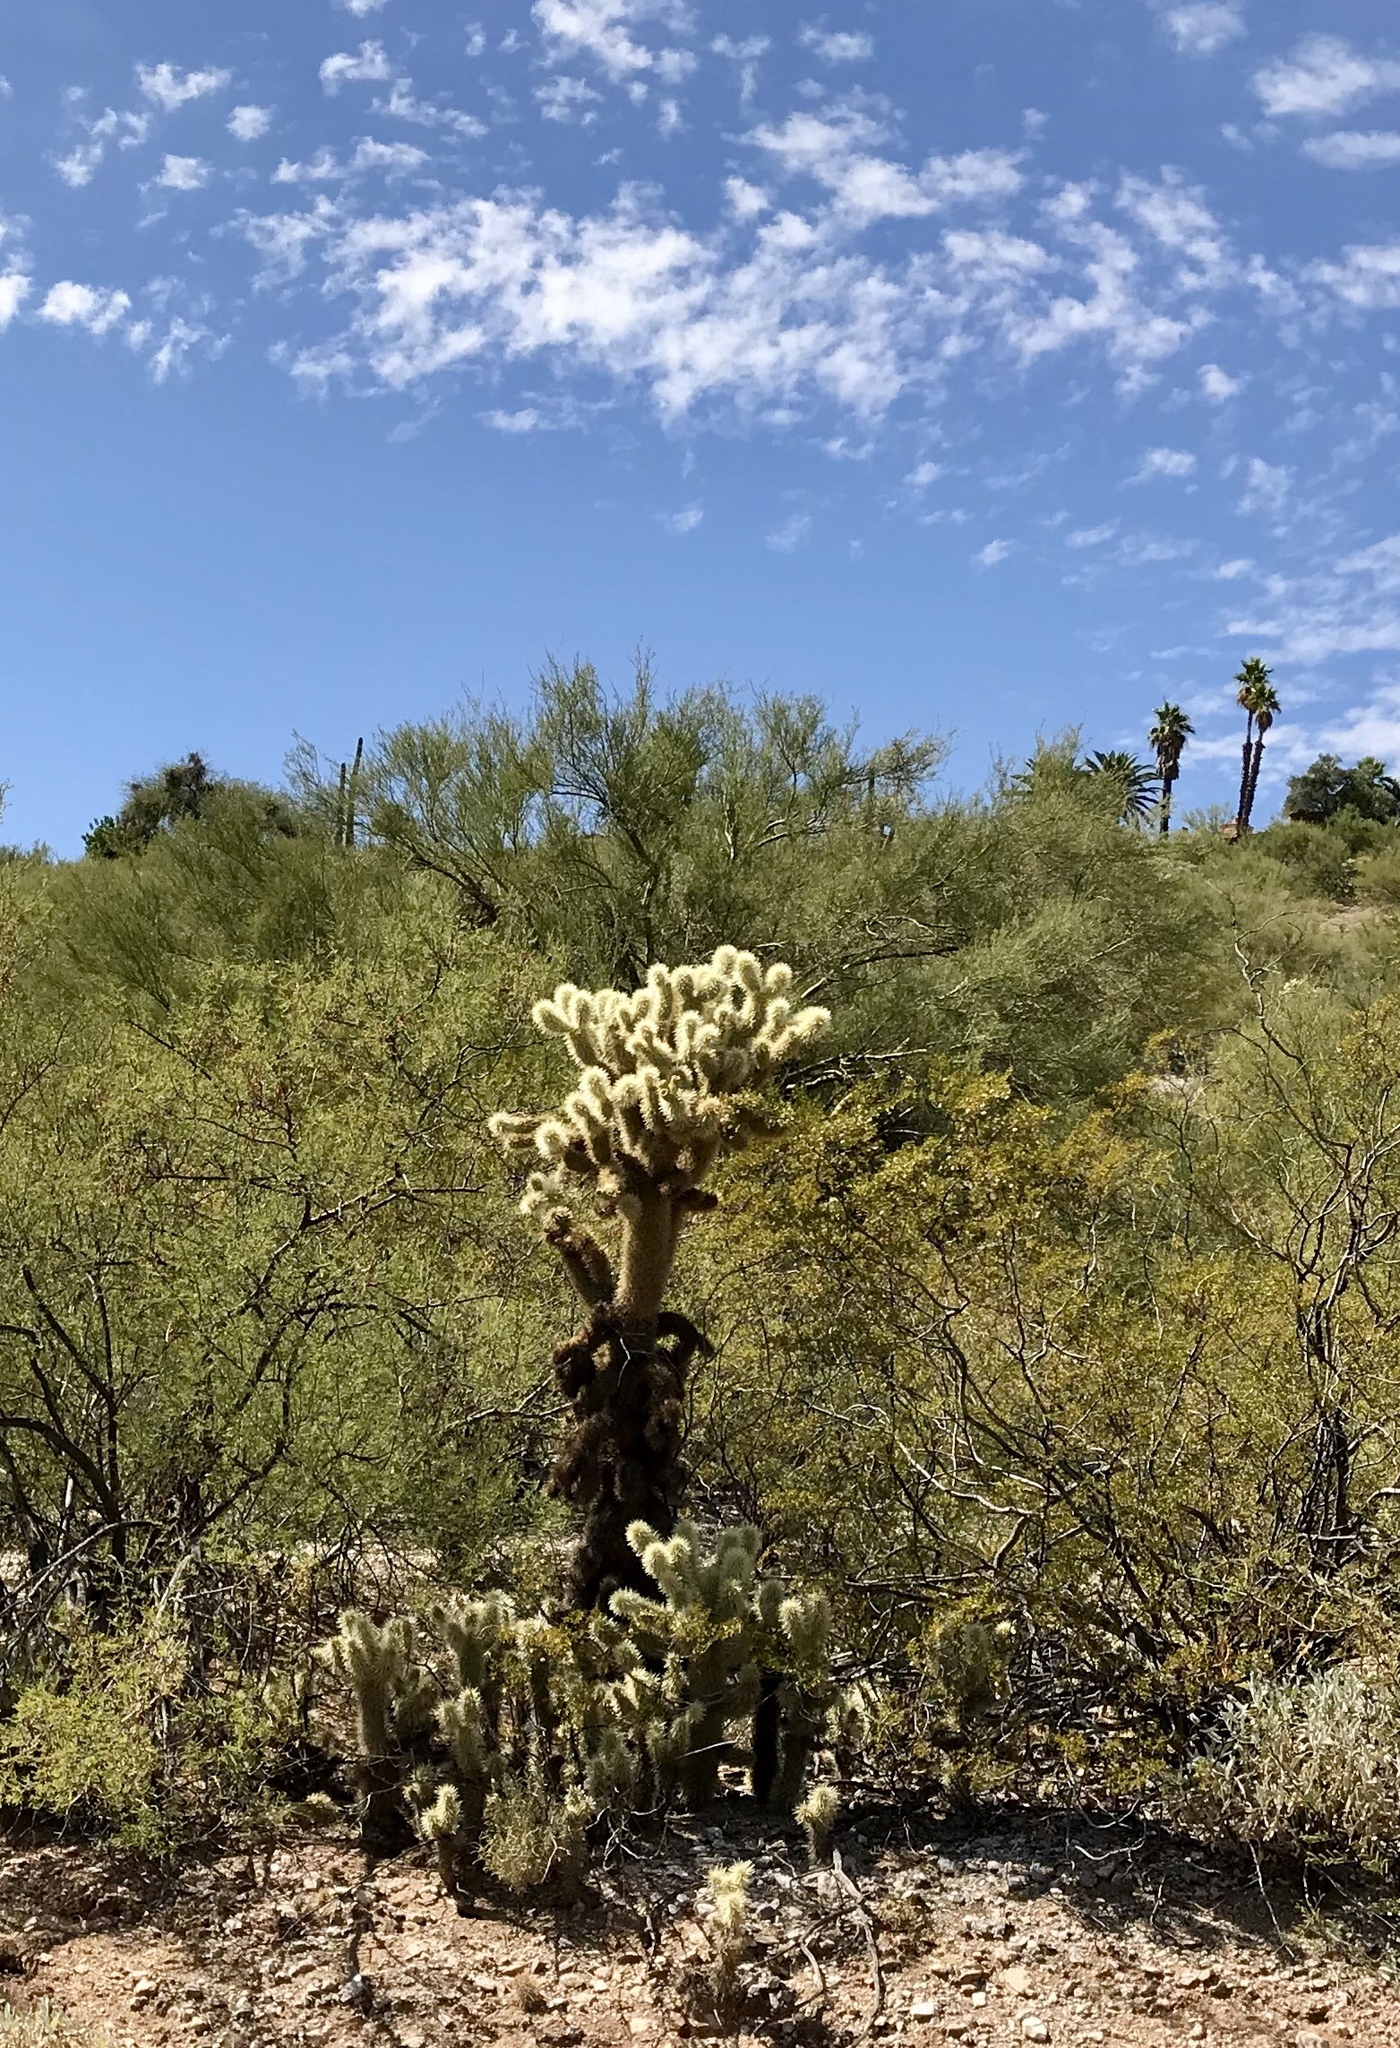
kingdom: Plantae
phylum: Tracheophyta
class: Magnoliopsida
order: Caryophyllales
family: Cactaceae
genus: Cylindropuntia
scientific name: Cylindropuntia fosbergii
